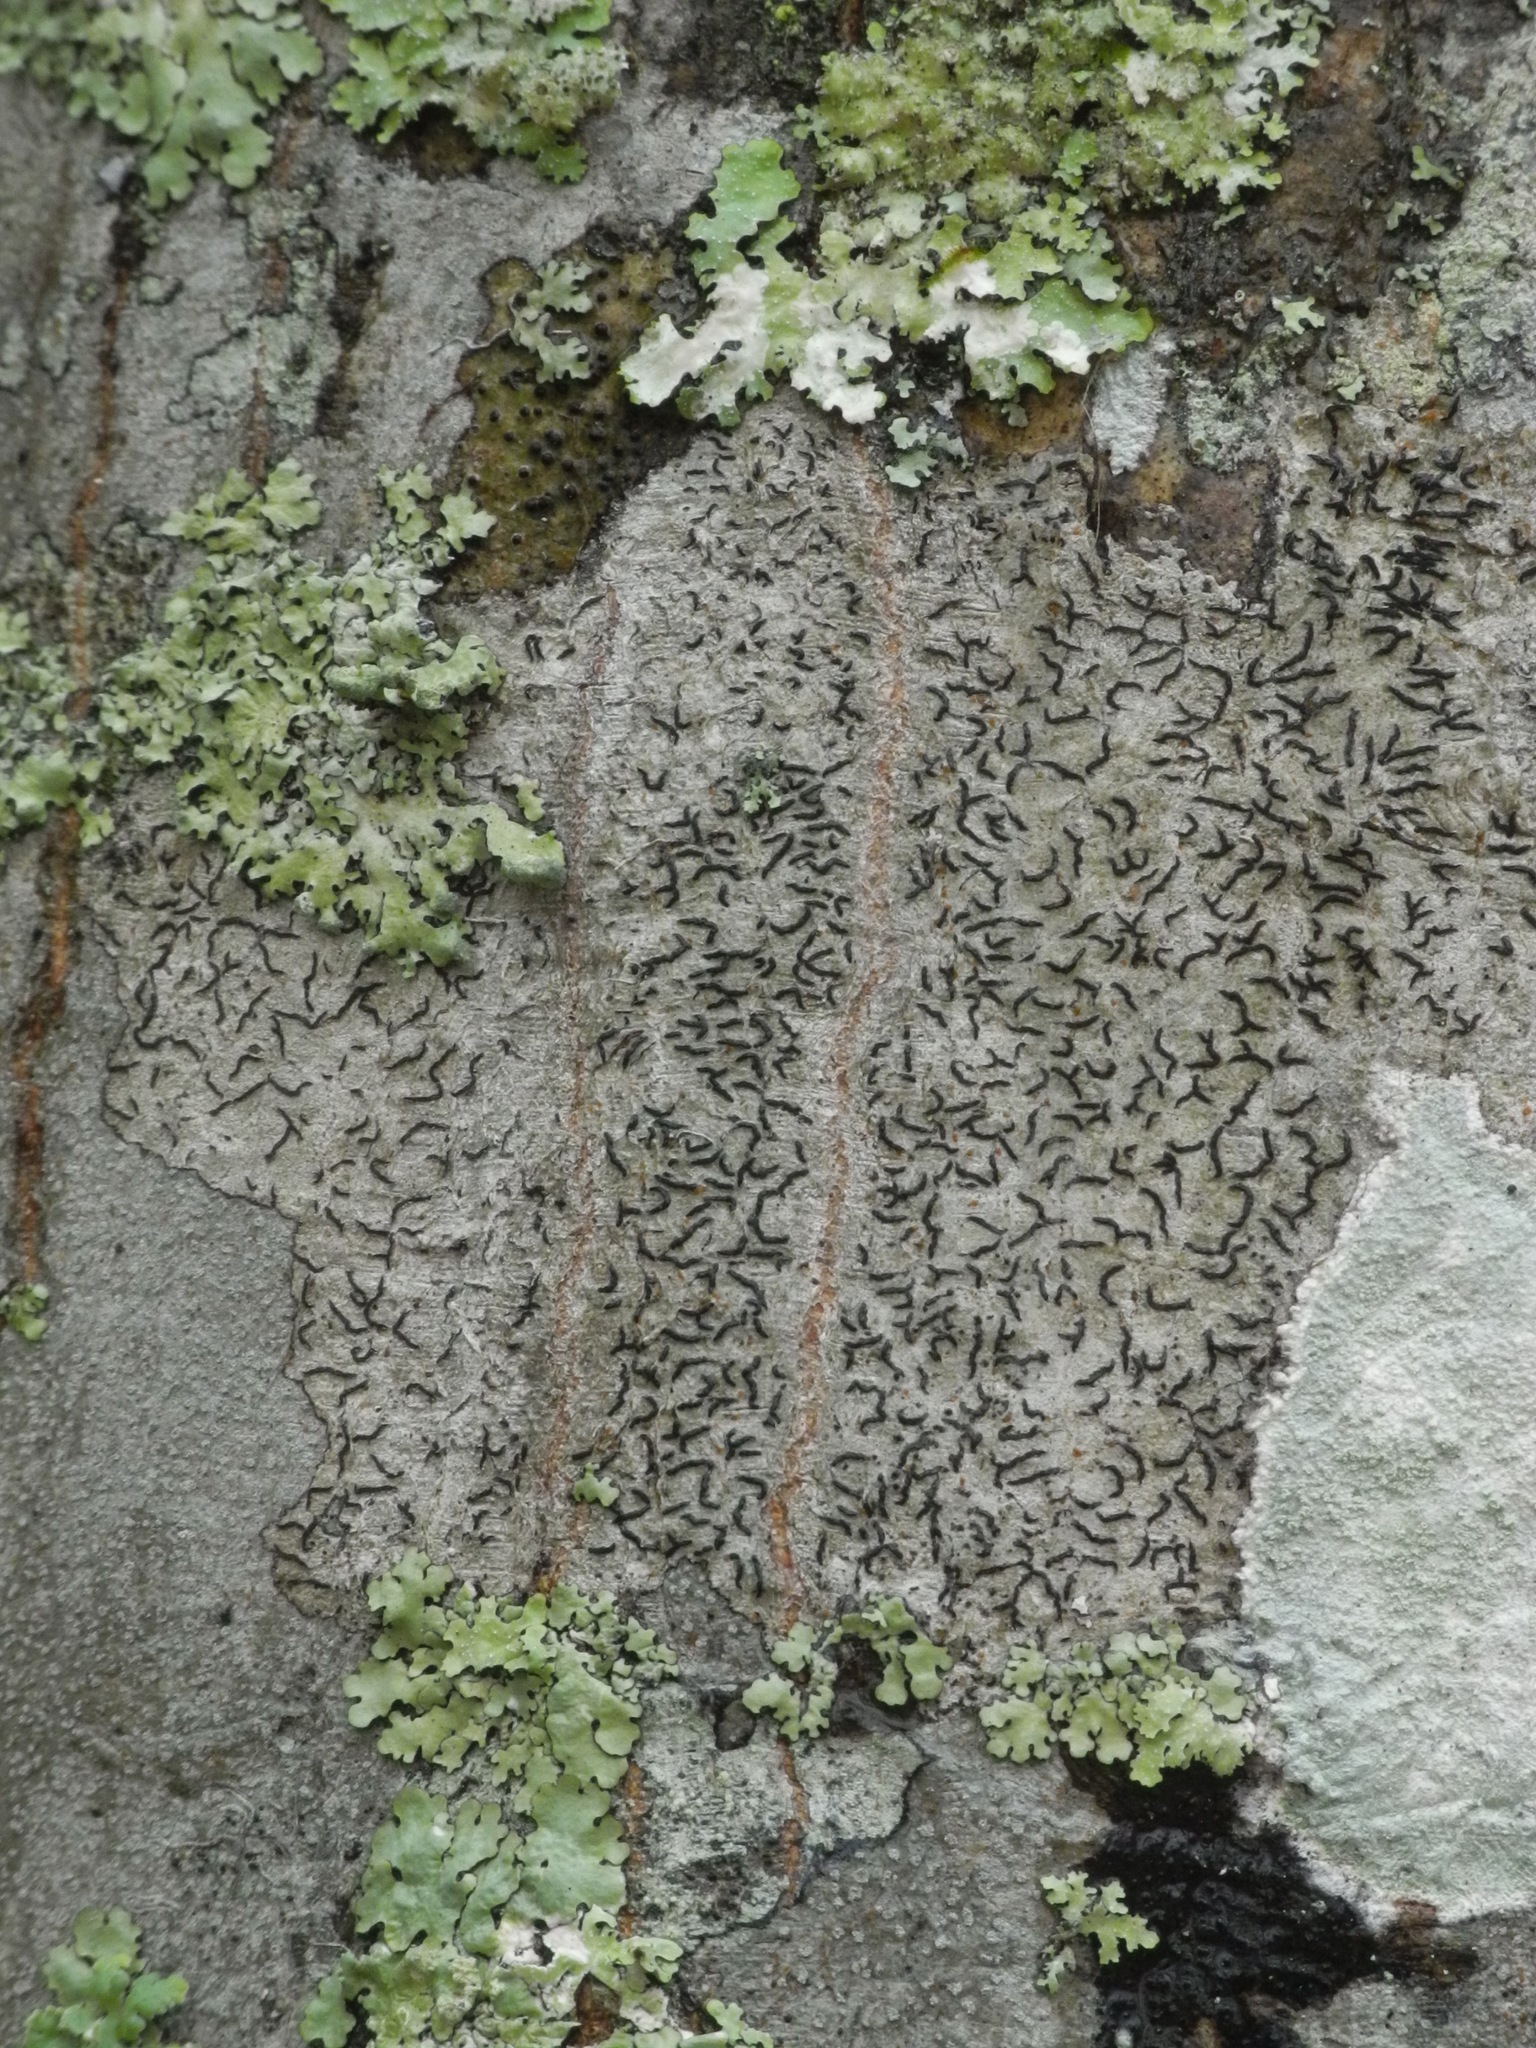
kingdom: Fungi
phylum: Ascomycota
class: Lecanoromycetes
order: Ostropales
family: Graphidaceae
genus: Graphis
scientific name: Graphis scripta
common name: Script lichen
